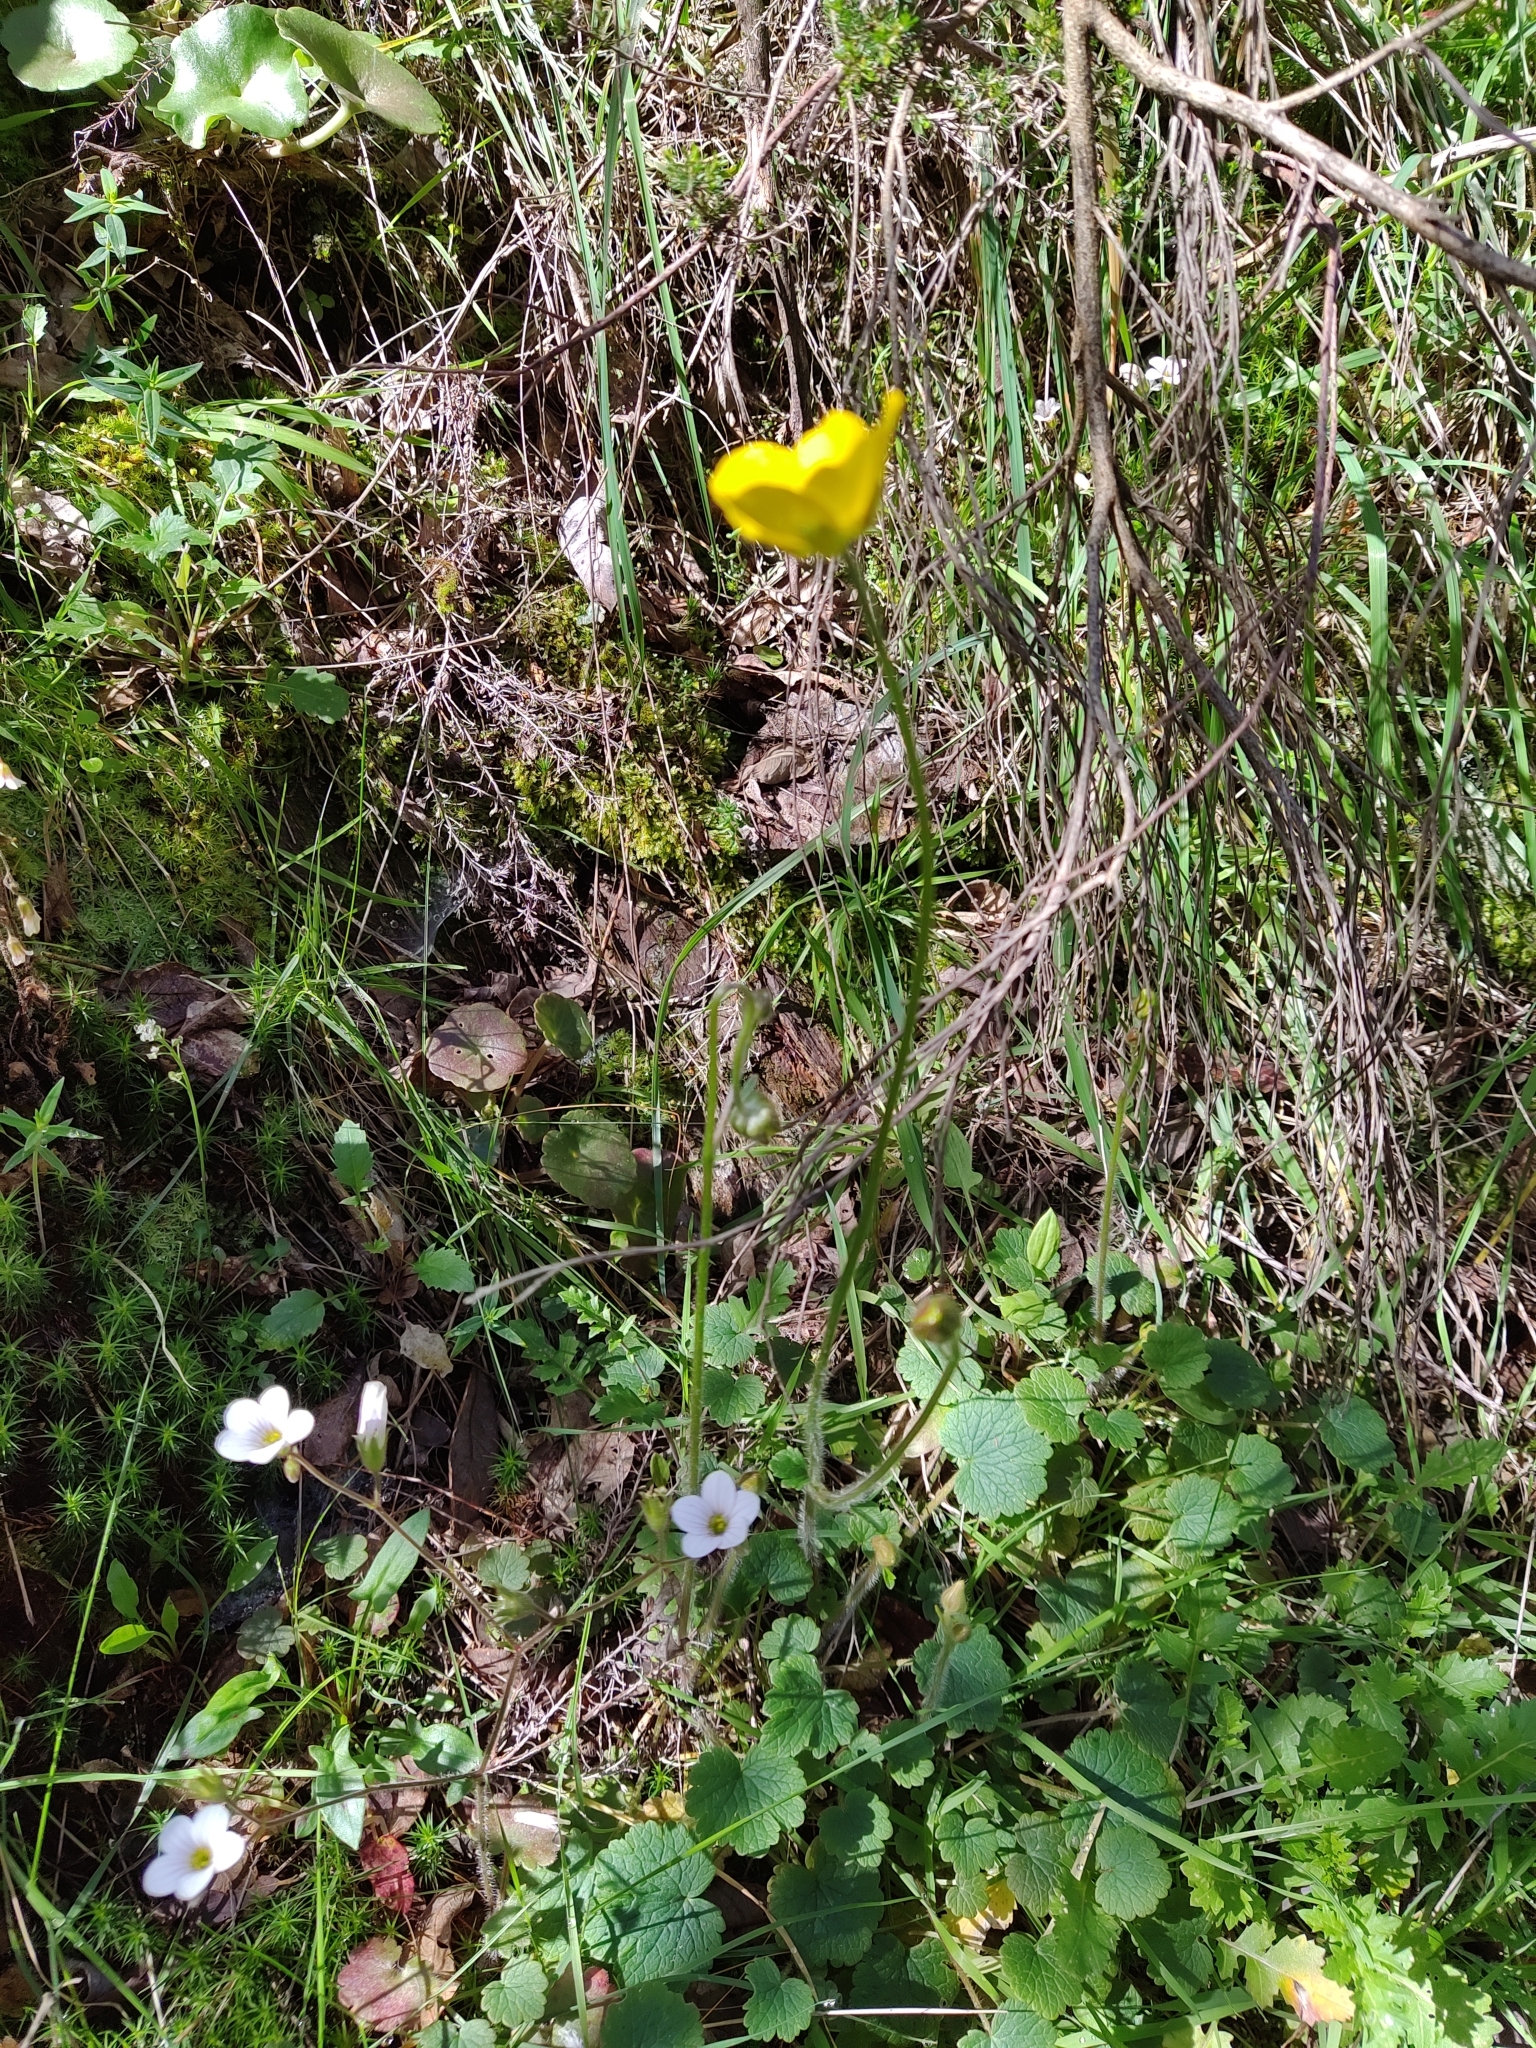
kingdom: Plantae
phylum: Tracheophyta
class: Magnoliopsida
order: Ranunculales
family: Ranunculaceae
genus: Ranunculus
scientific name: Ranunculus nigrescens
